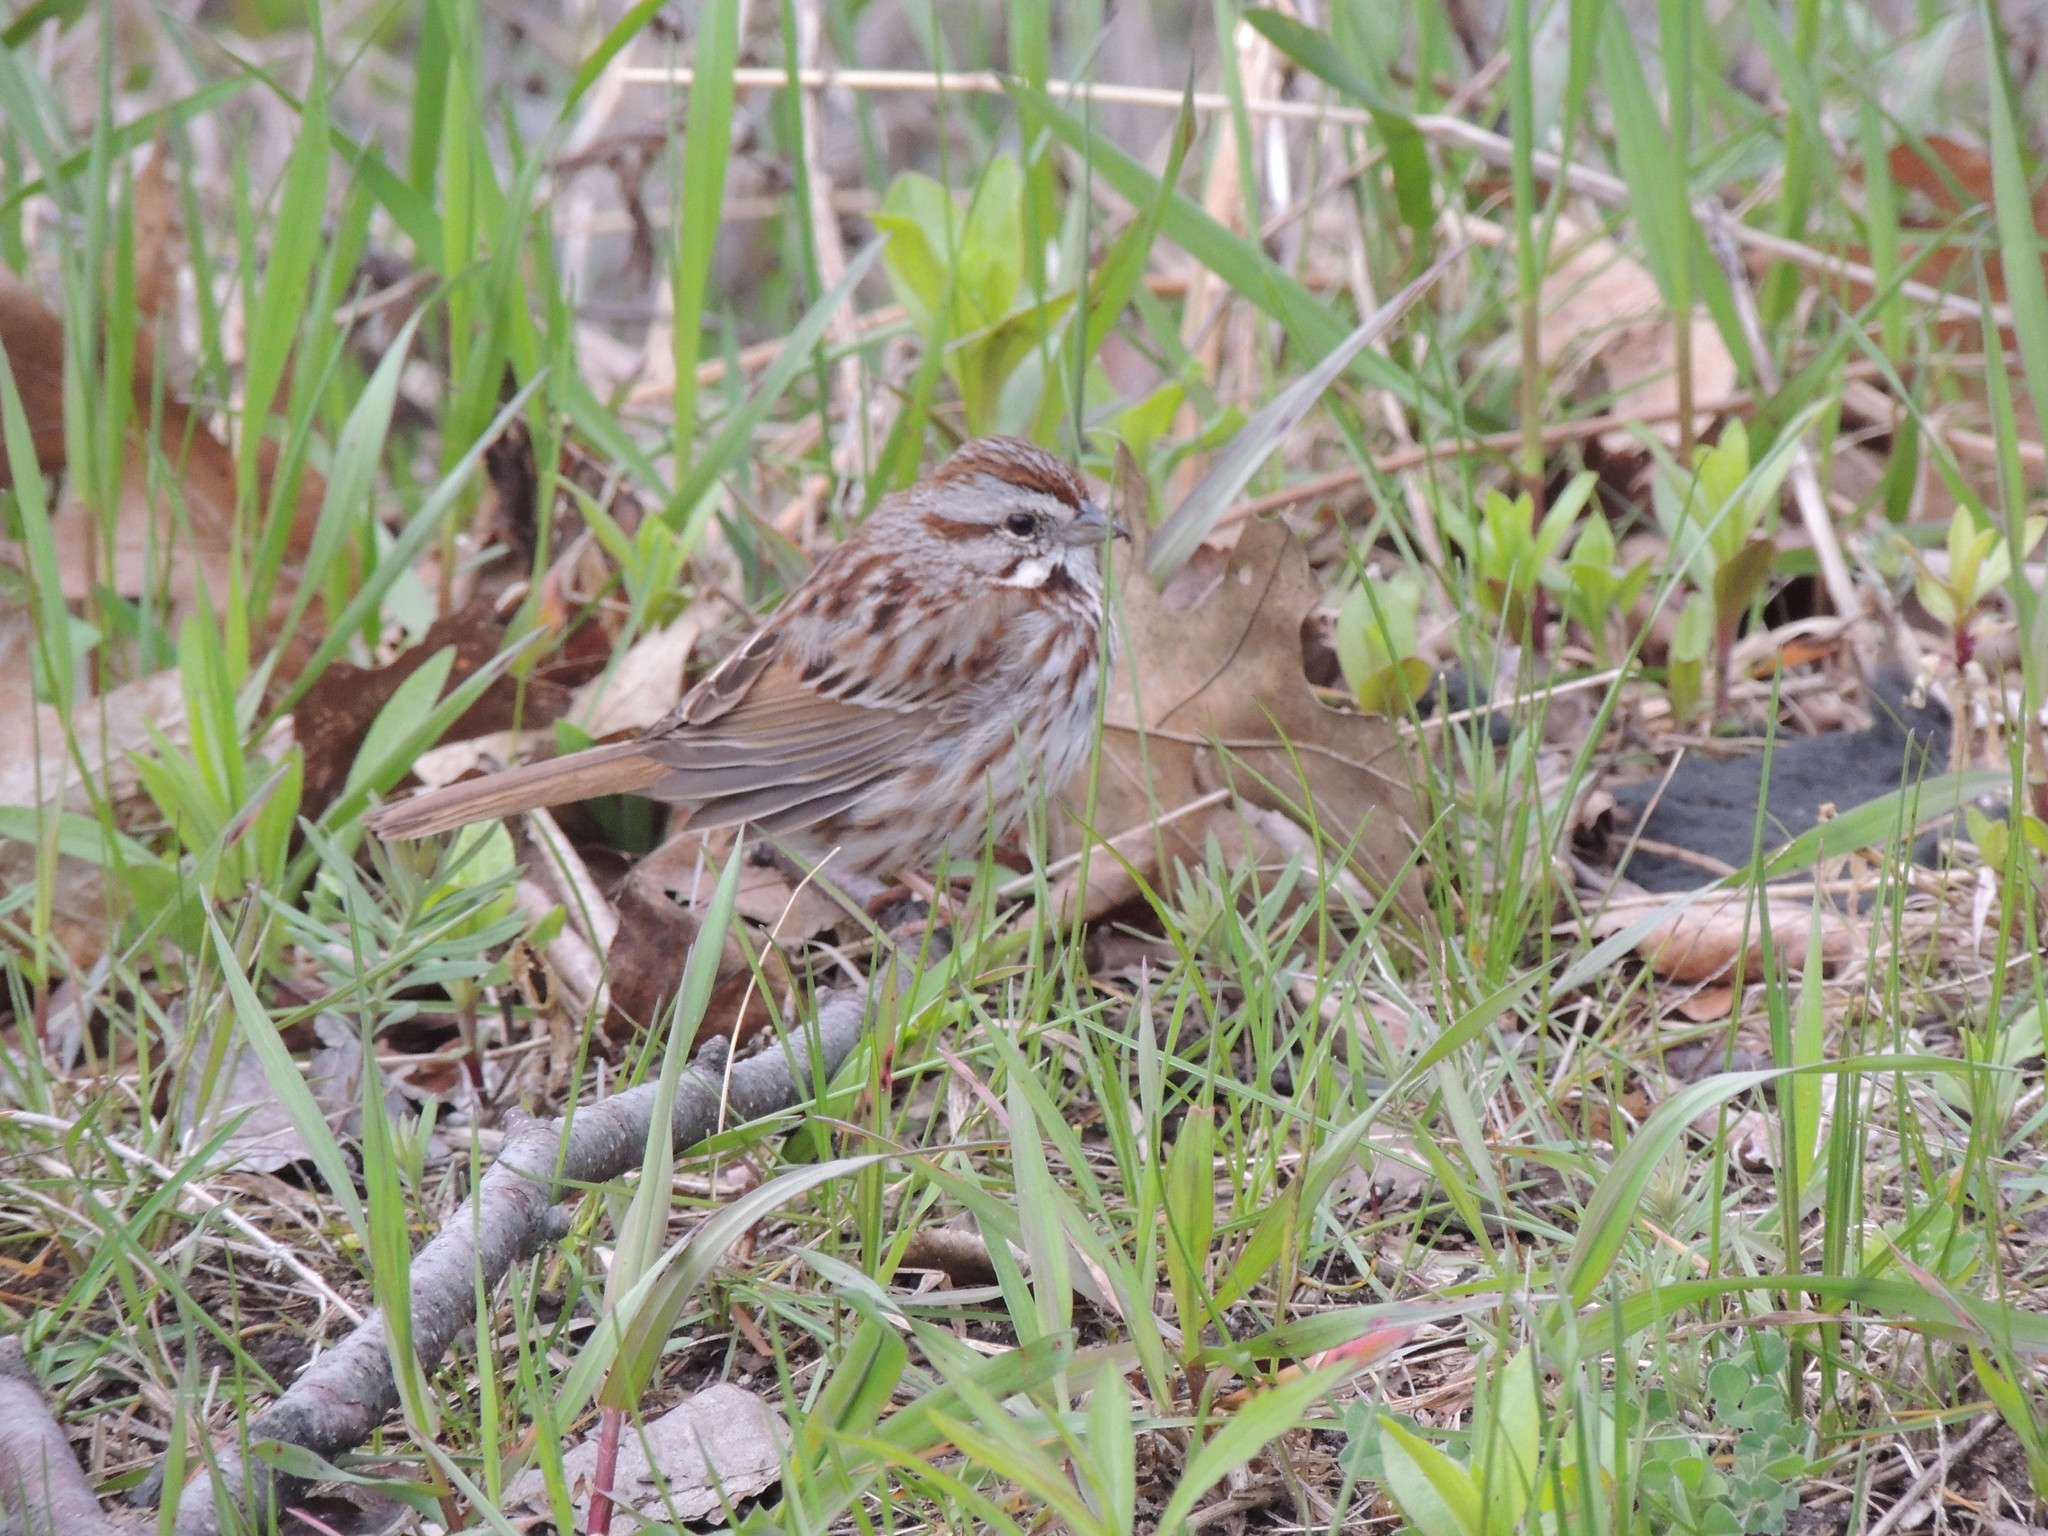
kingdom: Animalia
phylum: Chordata
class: Aves
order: Passeriformes
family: Passerellidae
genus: Melospiza
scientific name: Melospiza melodia
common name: Song sparrow
